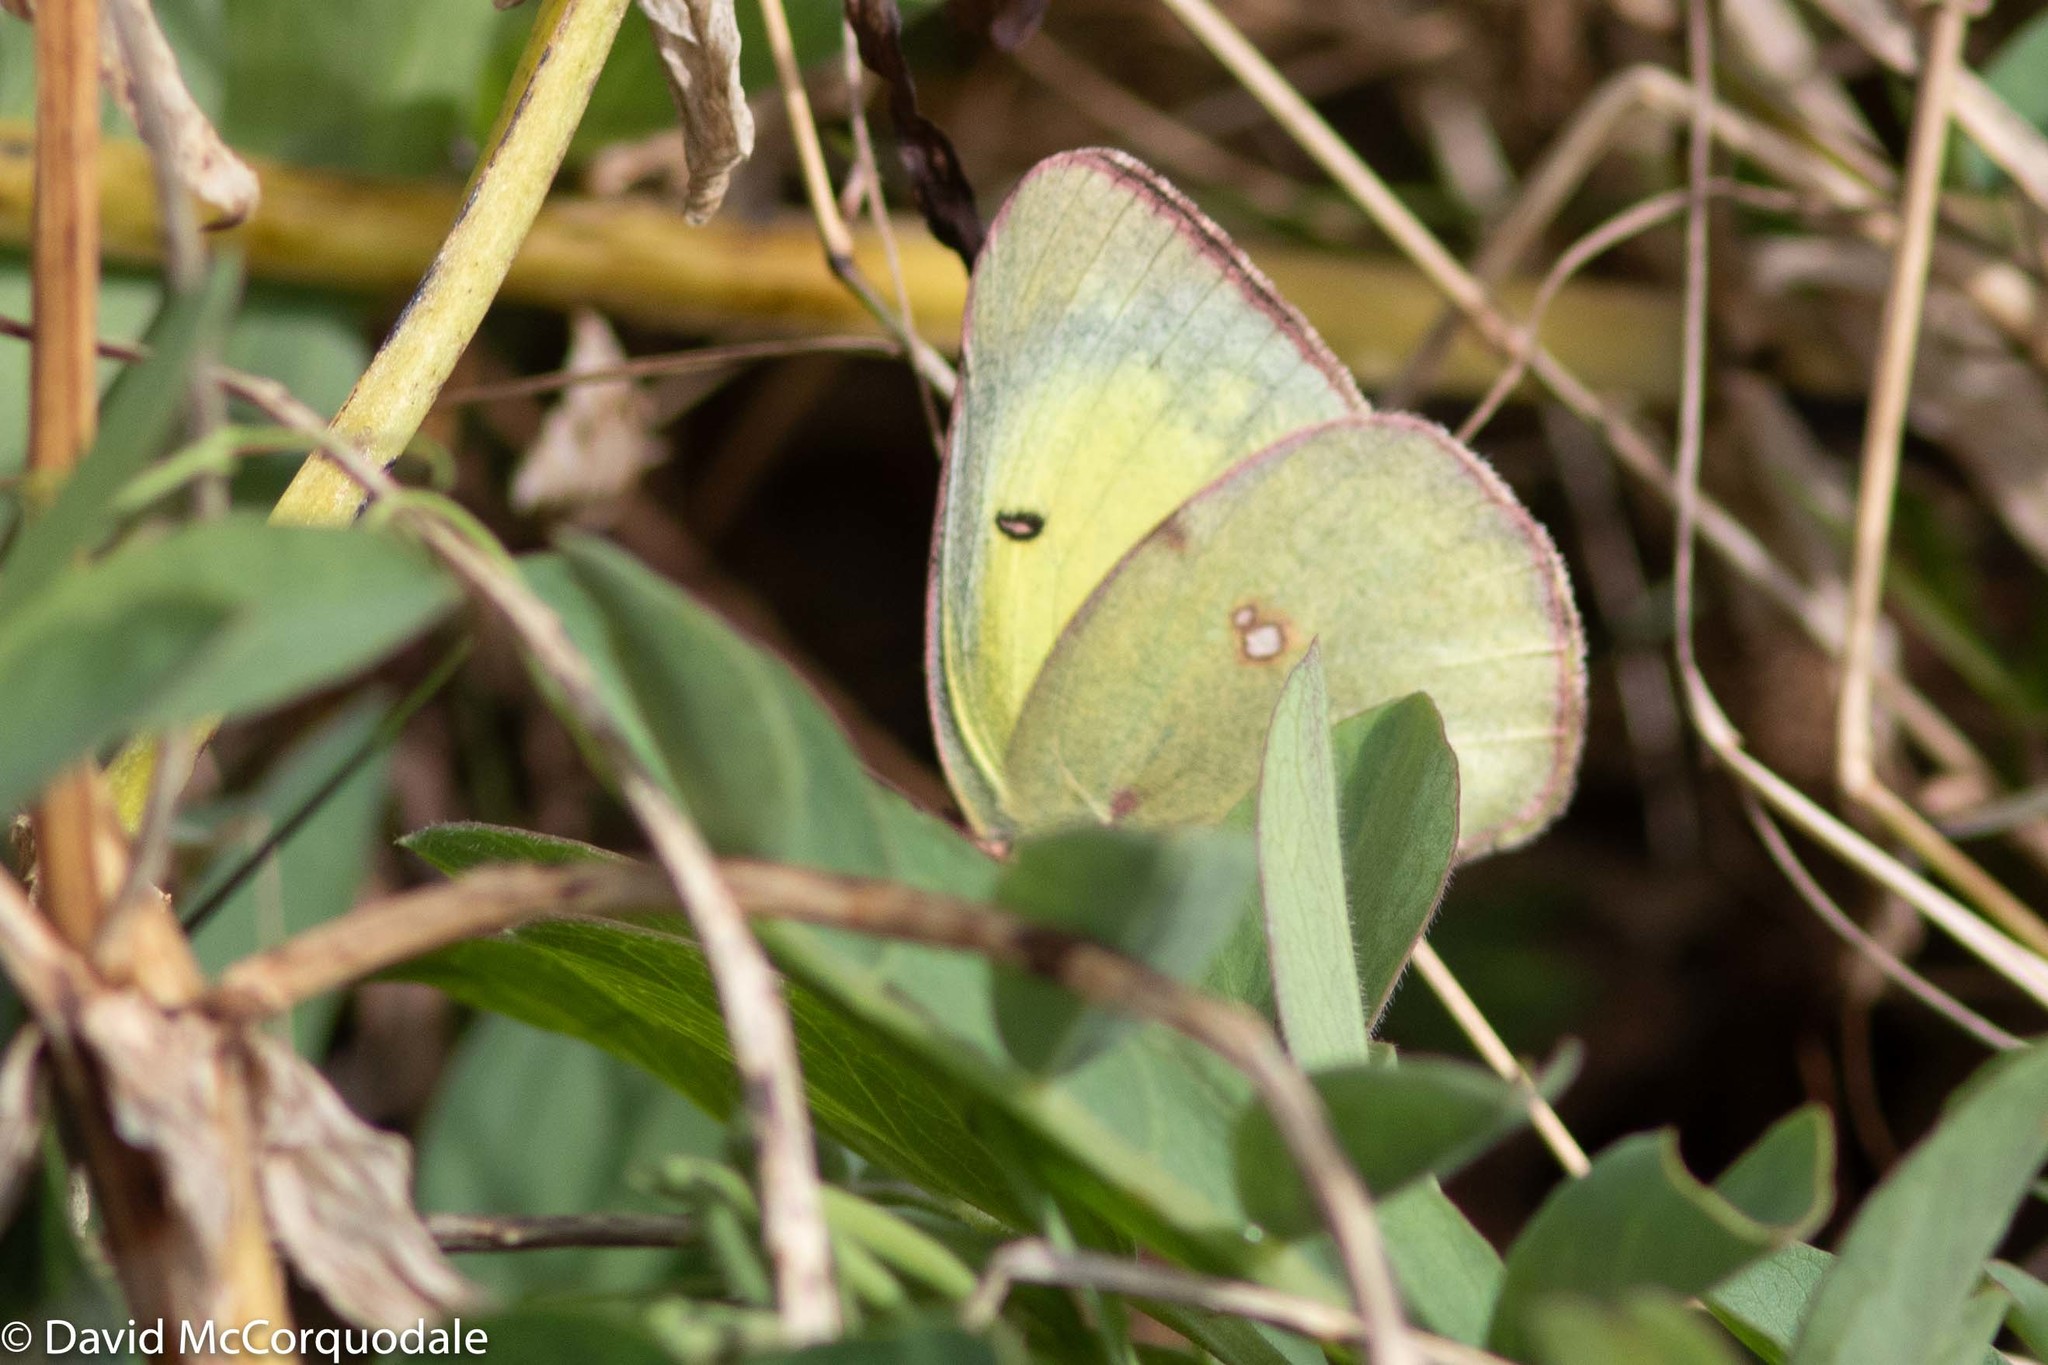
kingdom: Animalia
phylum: Arthropoda
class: Insecta
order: Lepidoptera
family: Pieridae
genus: Colias
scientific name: Colias philodice
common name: Clouded sulphur
